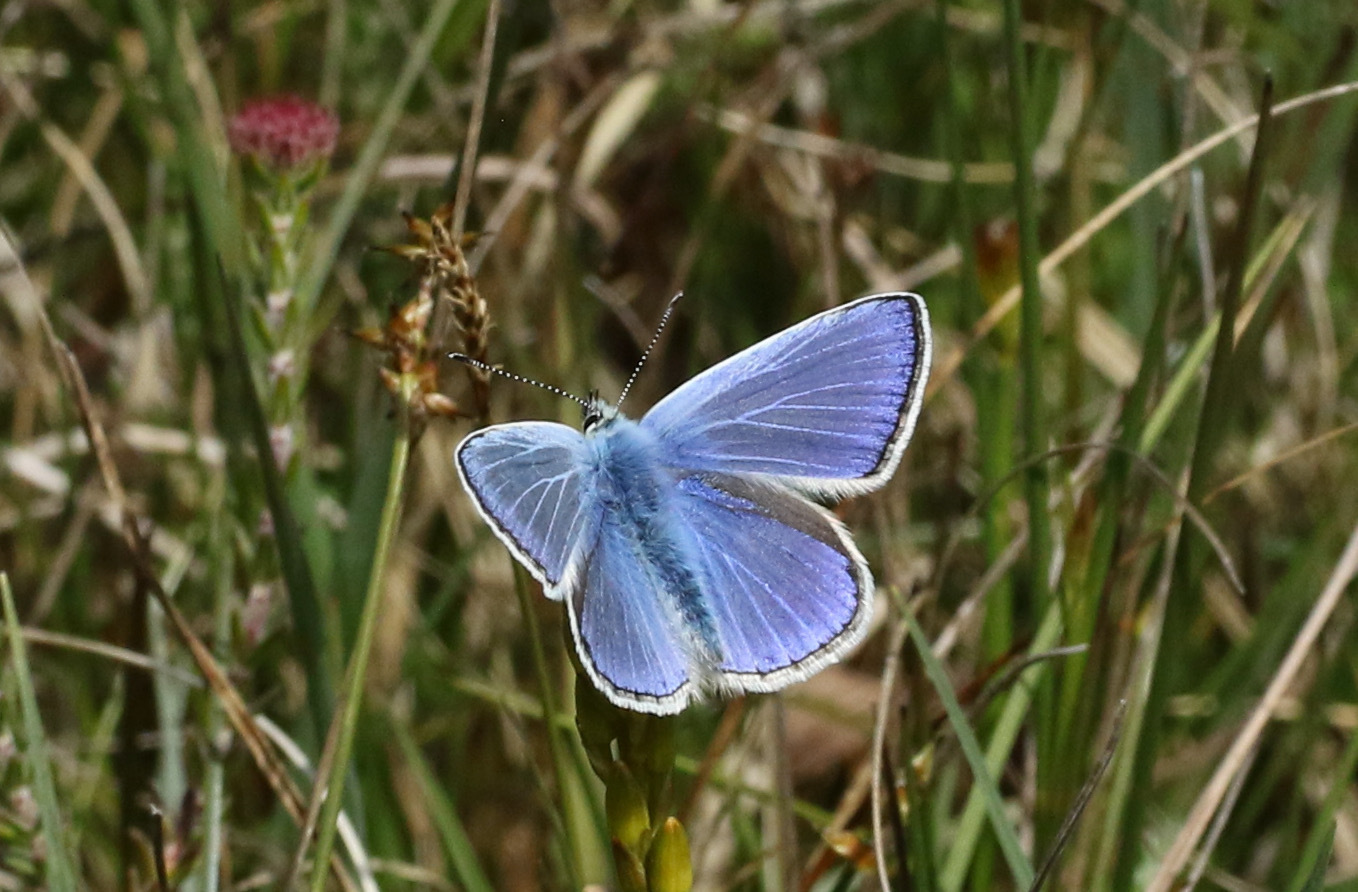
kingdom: Animalia
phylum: Arthropoda
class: Insecta
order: Lepidoptera
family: Lycaenidae
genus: Polyommatus
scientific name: Polyommatus icarus
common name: Common blue
